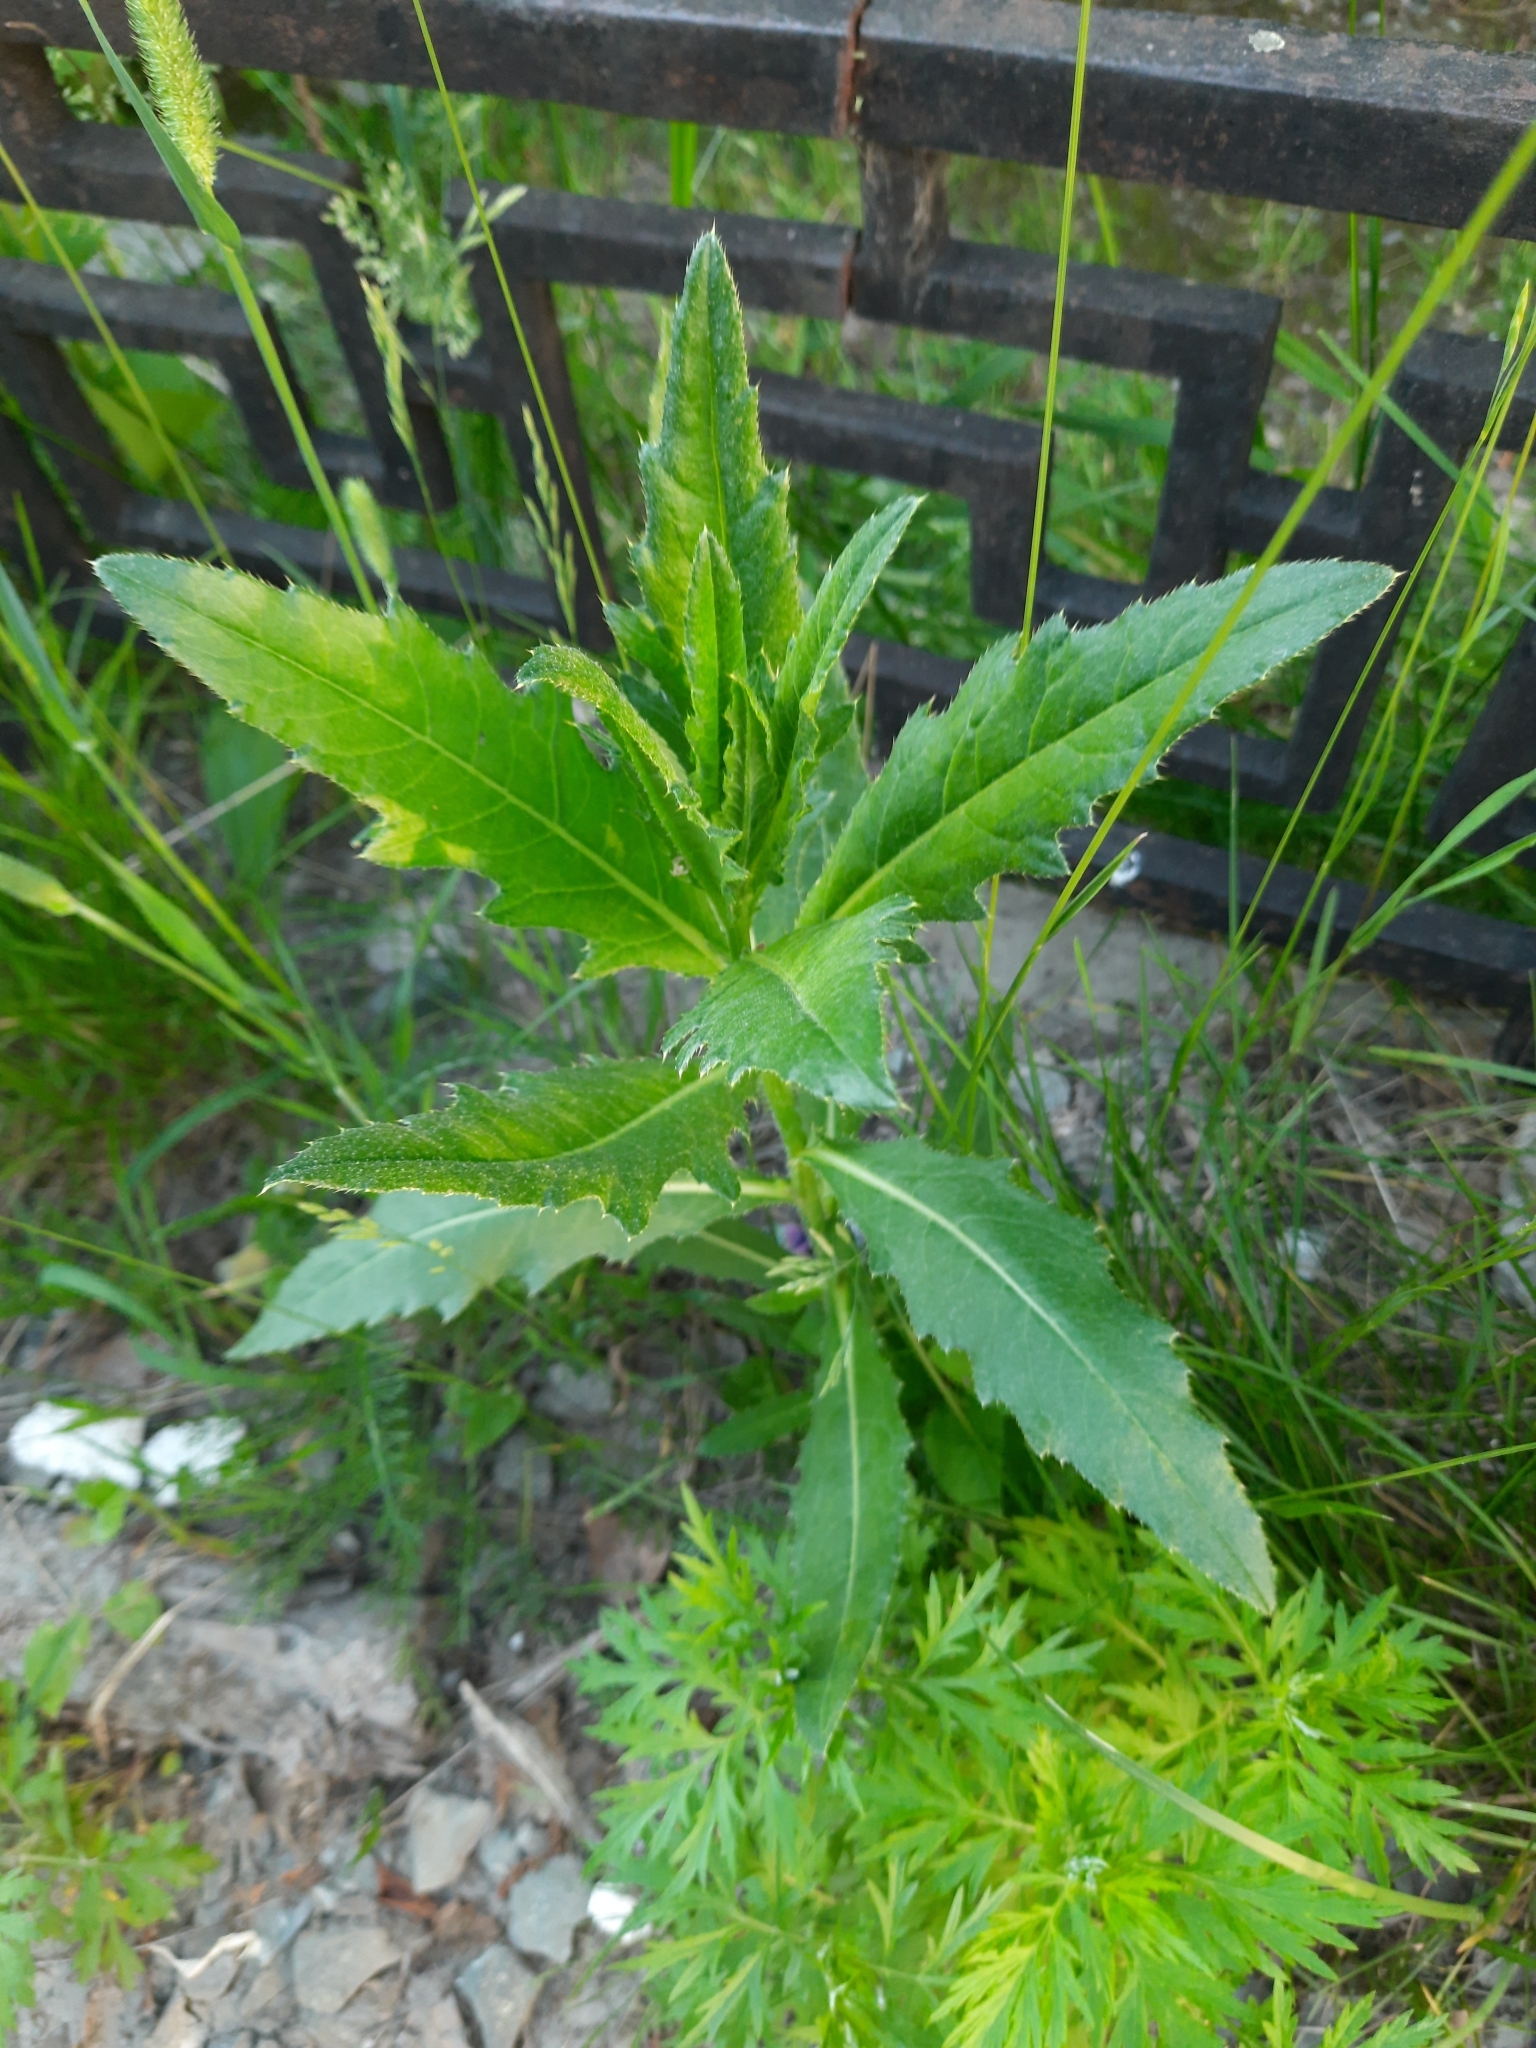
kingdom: Plantae
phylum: Tracheophyta
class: Magnoliopsida
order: Asterales
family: Asteraceae
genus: Cirsium
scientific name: Cirsium arvense
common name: Creeping thistle
